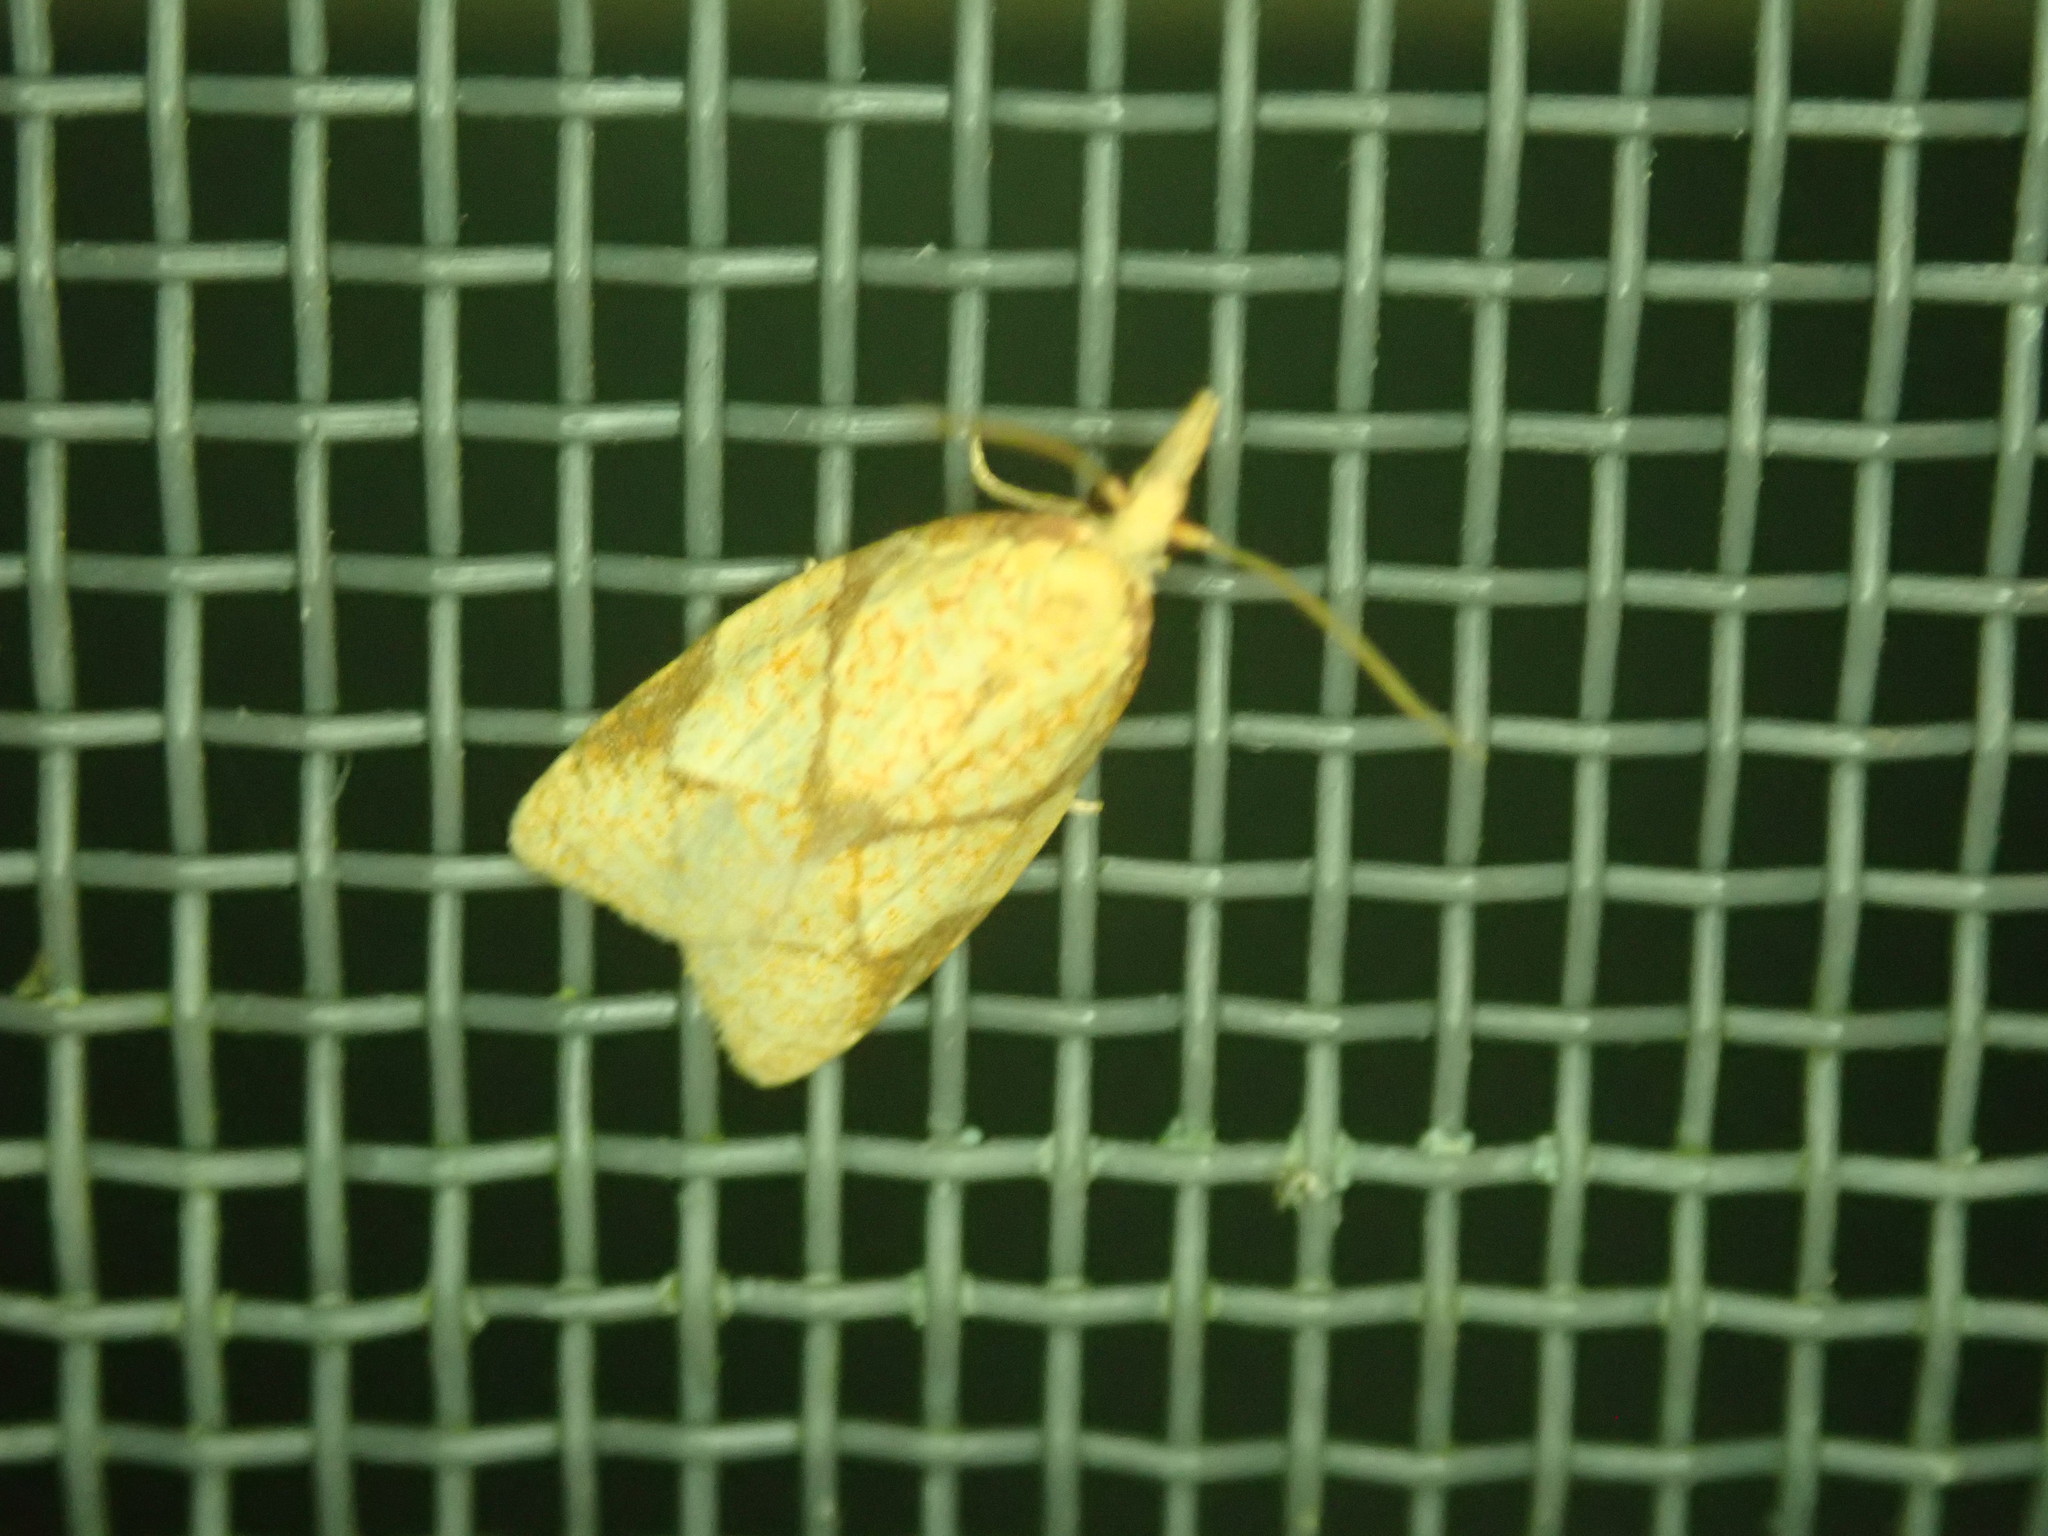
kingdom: Animalia
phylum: Arthropoda
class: Insecta
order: Lepidoptera
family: Tortricidae
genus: Cenopis
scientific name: Cenopis reticulatana
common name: Reticulated fruitworm moth
